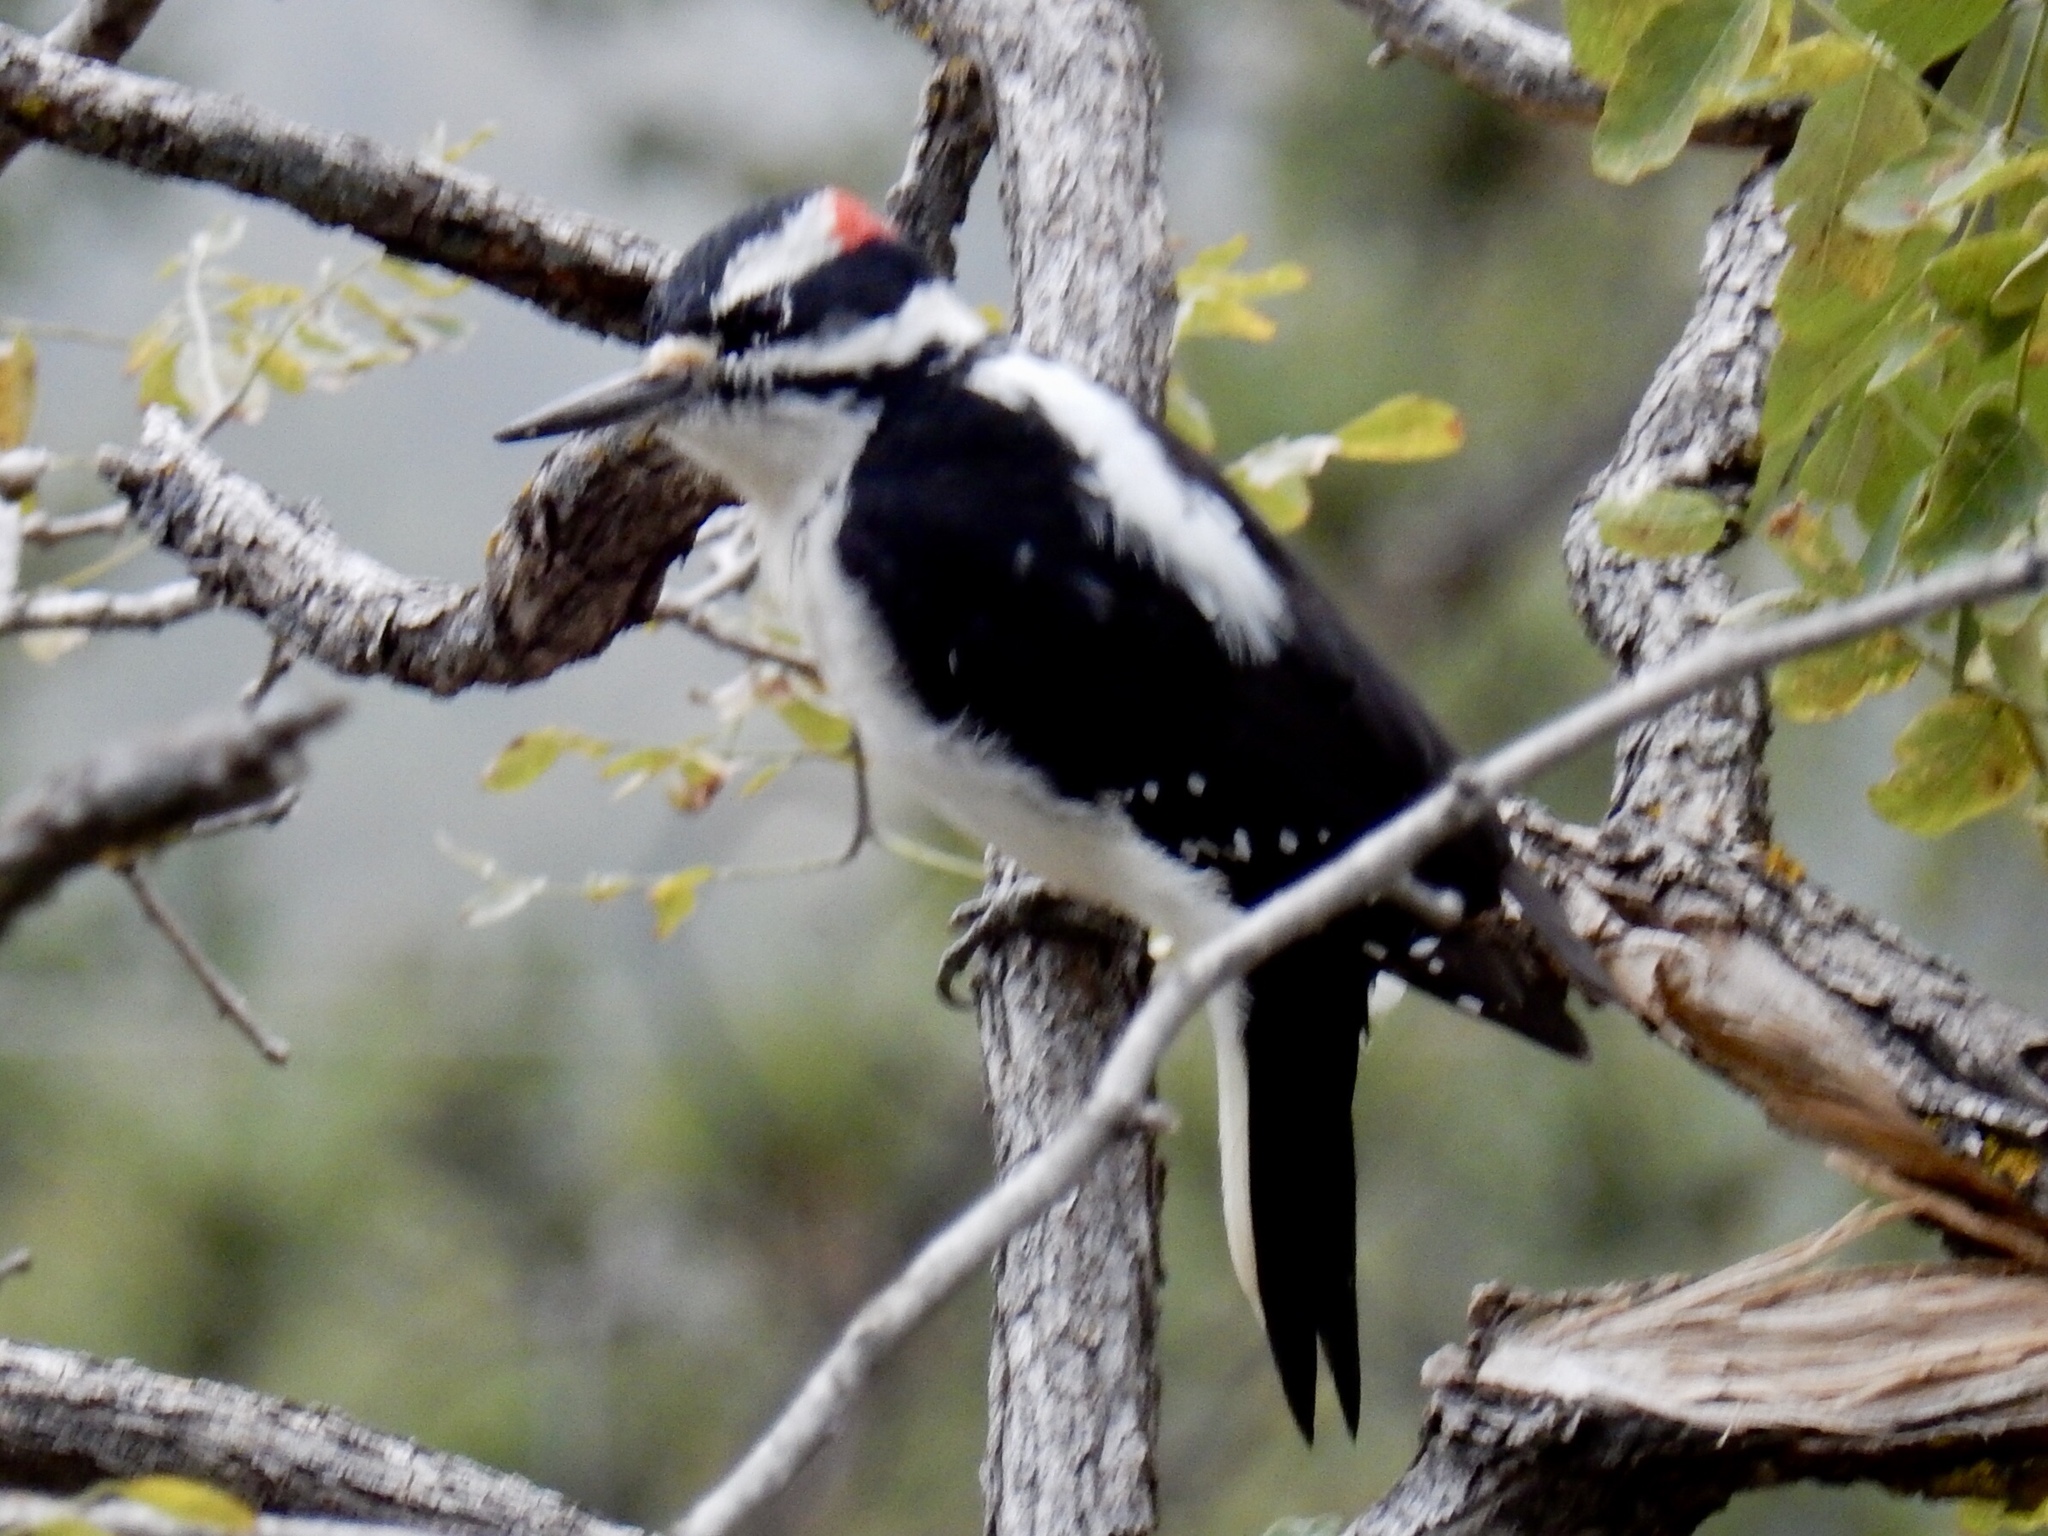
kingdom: Animalia
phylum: Chordata
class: Aves
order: Piciformes
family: Picidae
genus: Leuconotopicus
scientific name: Leuconotopicus villosus
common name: Hairy woodpecker
